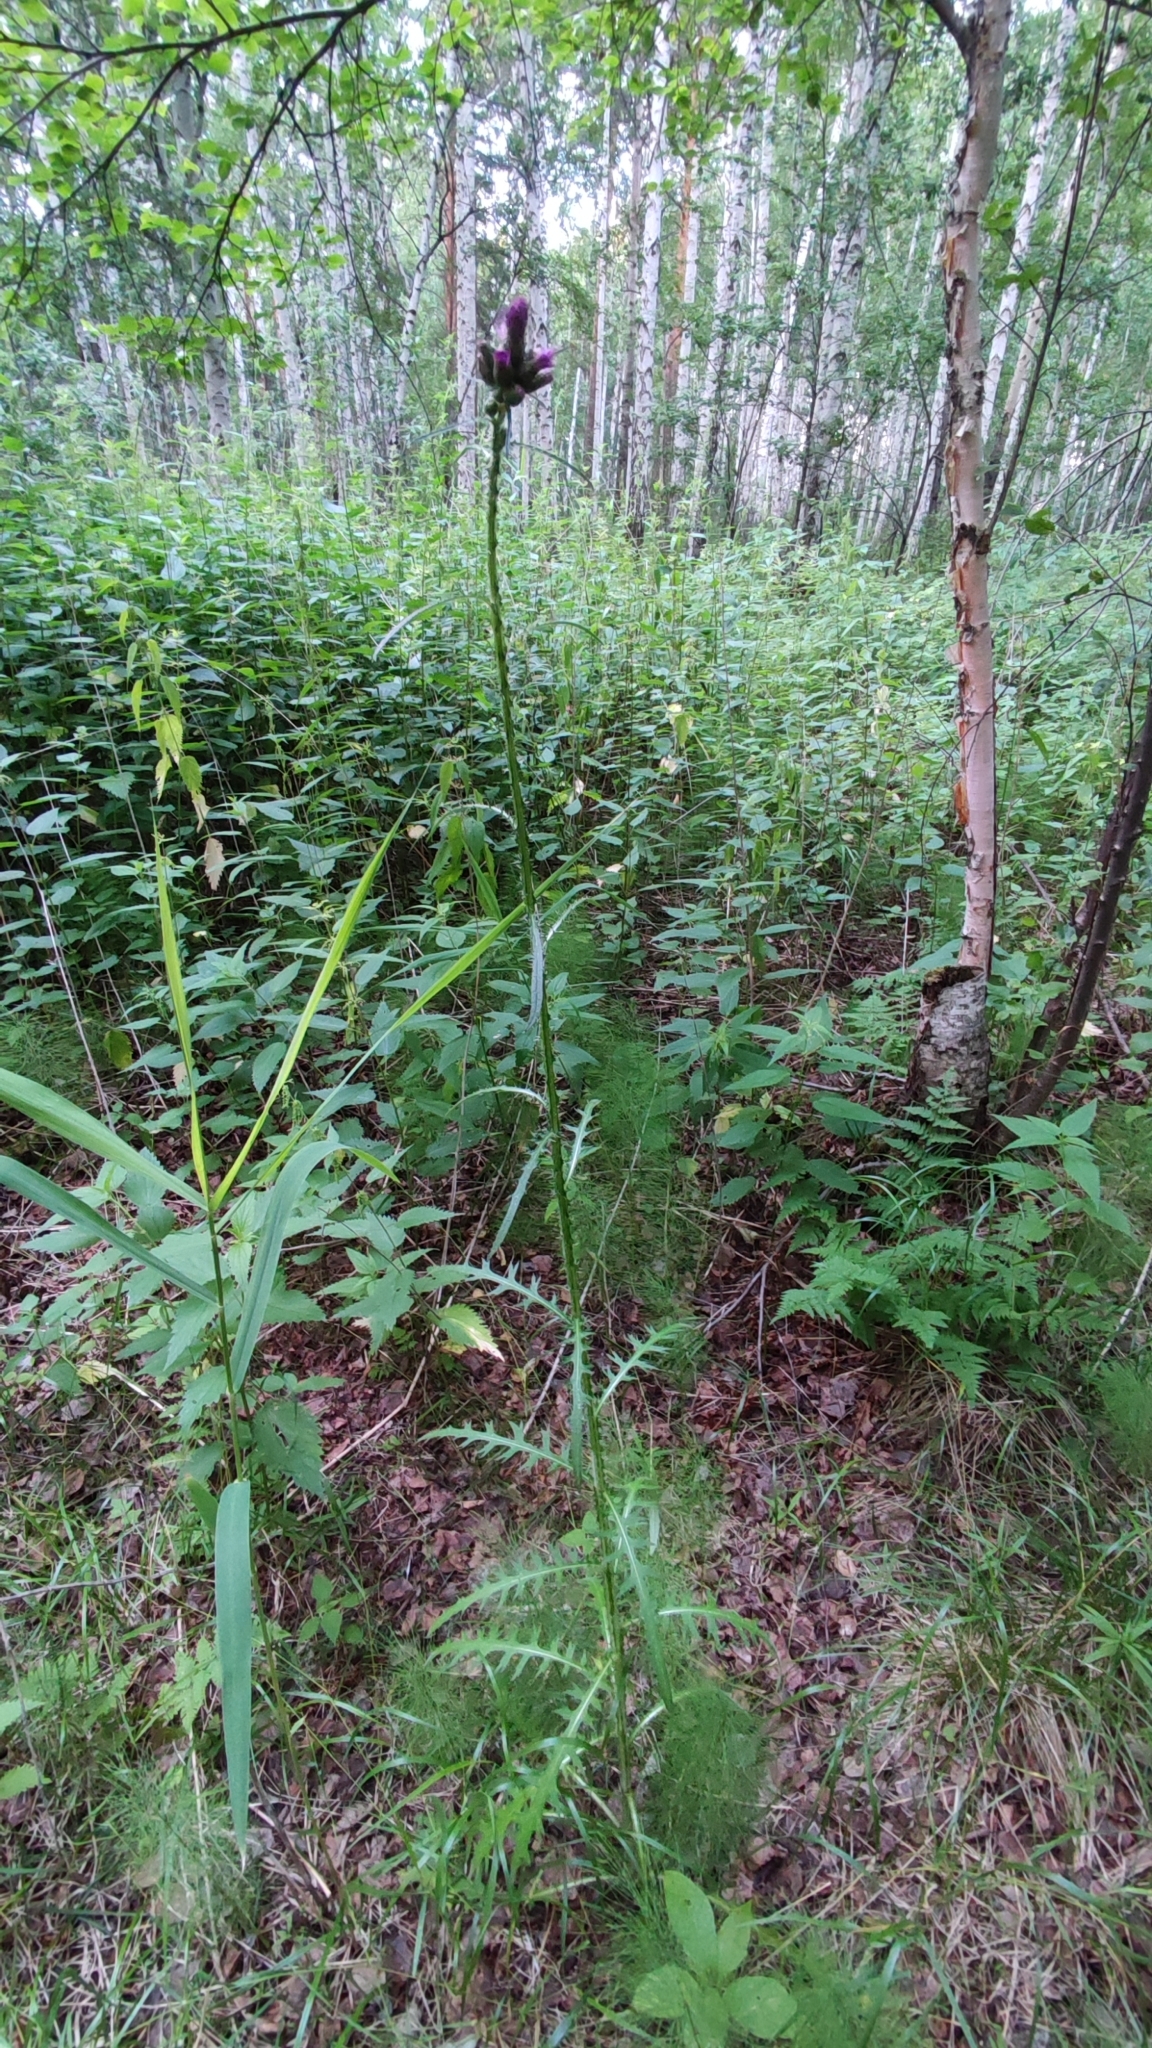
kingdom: Plantae
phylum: Tracheophyta
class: Magnoliopsida
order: Asterales
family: Asteraceae
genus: Cirsium
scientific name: Cirsium palustre
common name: Marsh thistle
